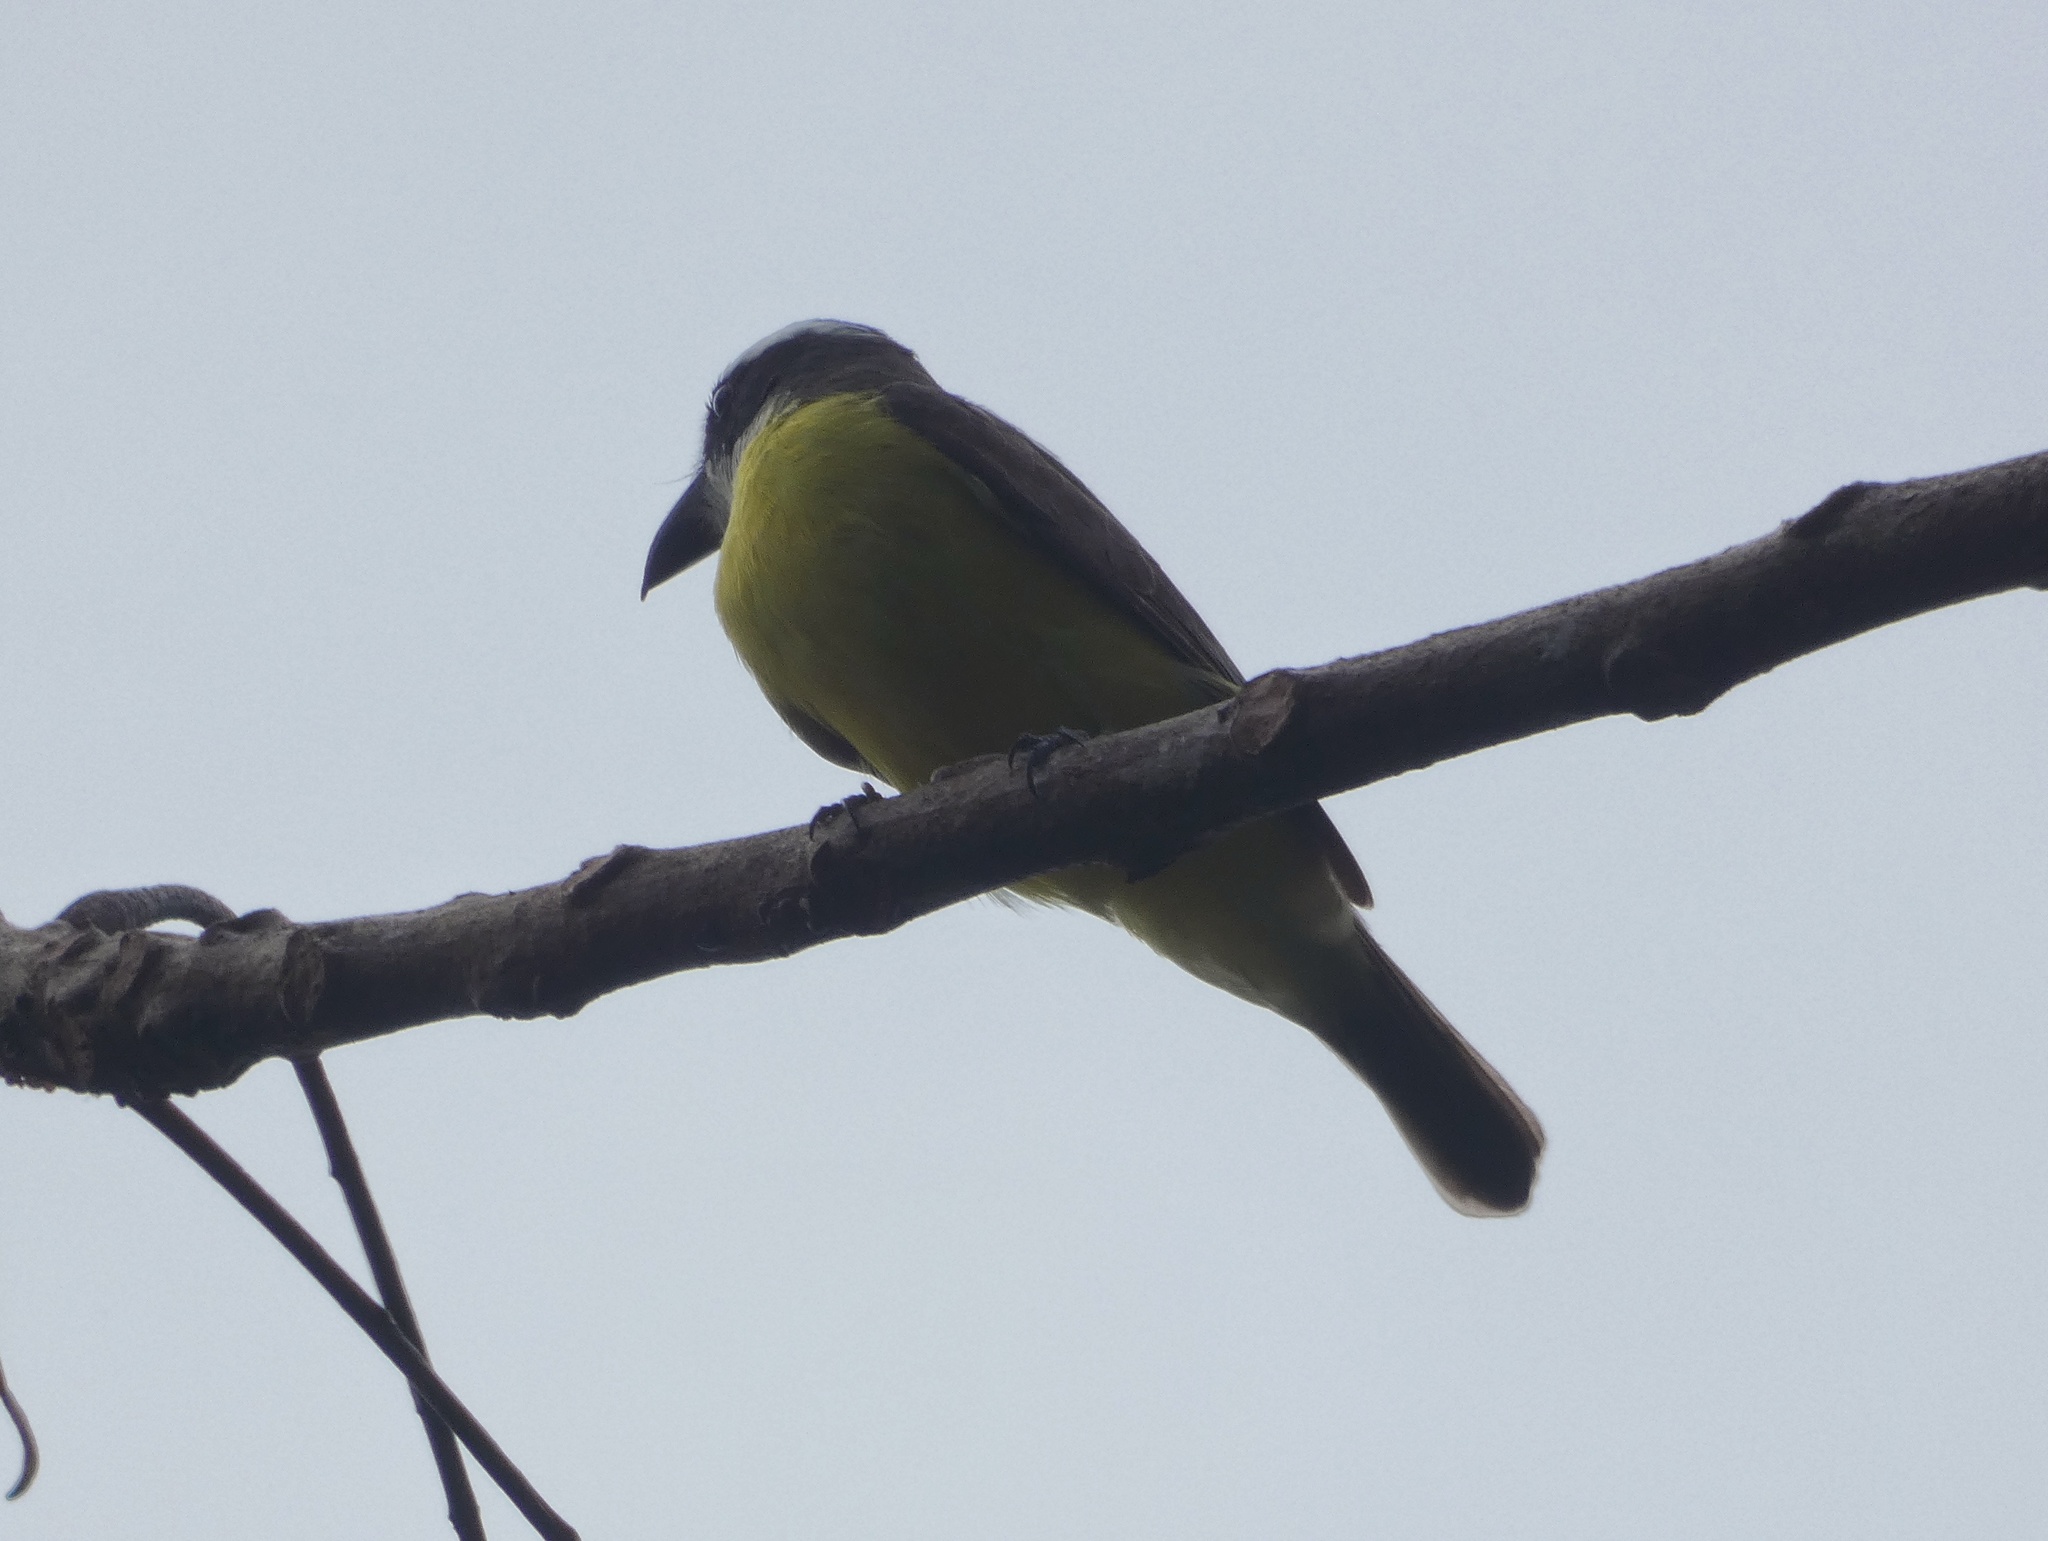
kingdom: Animalia
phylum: Chordata
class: Aves
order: Passeriformes
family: Tyrannidae
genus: Megarynchus
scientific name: Megarynchus pitangua
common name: Boat-billed flycatcher
